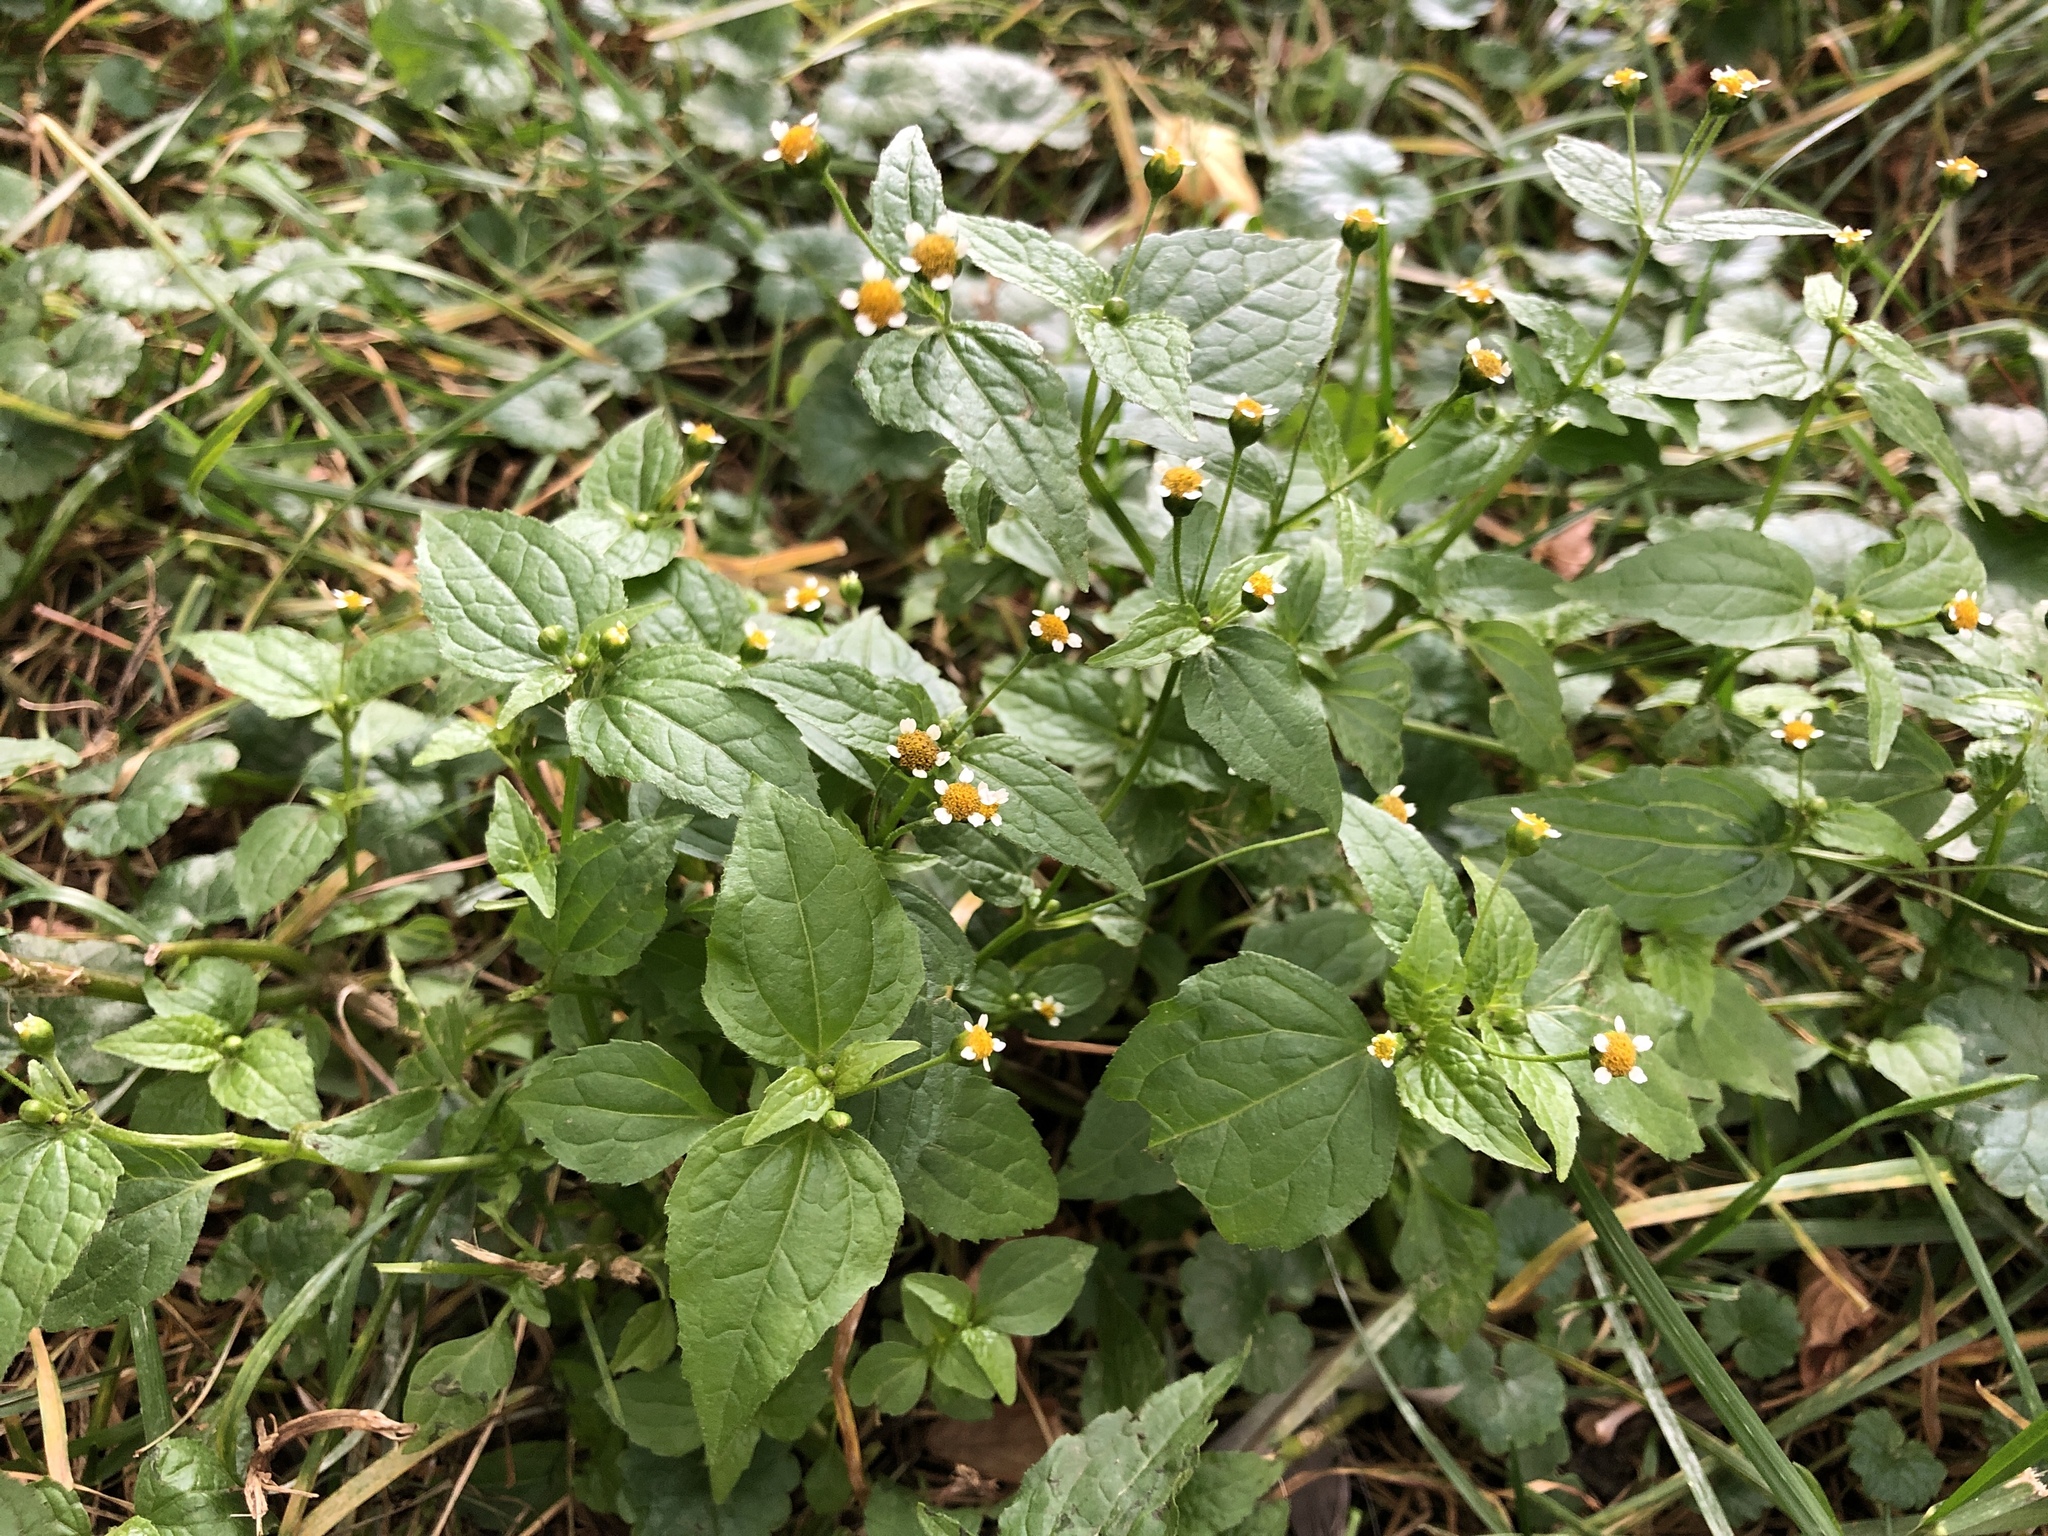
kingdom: Plantae
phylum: Tracheophyta
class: Magnoliopsida
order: Asterales
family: Asteraceae
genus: Galinsoga
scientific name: Galinsoga parviflora
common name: Gallant soldier
